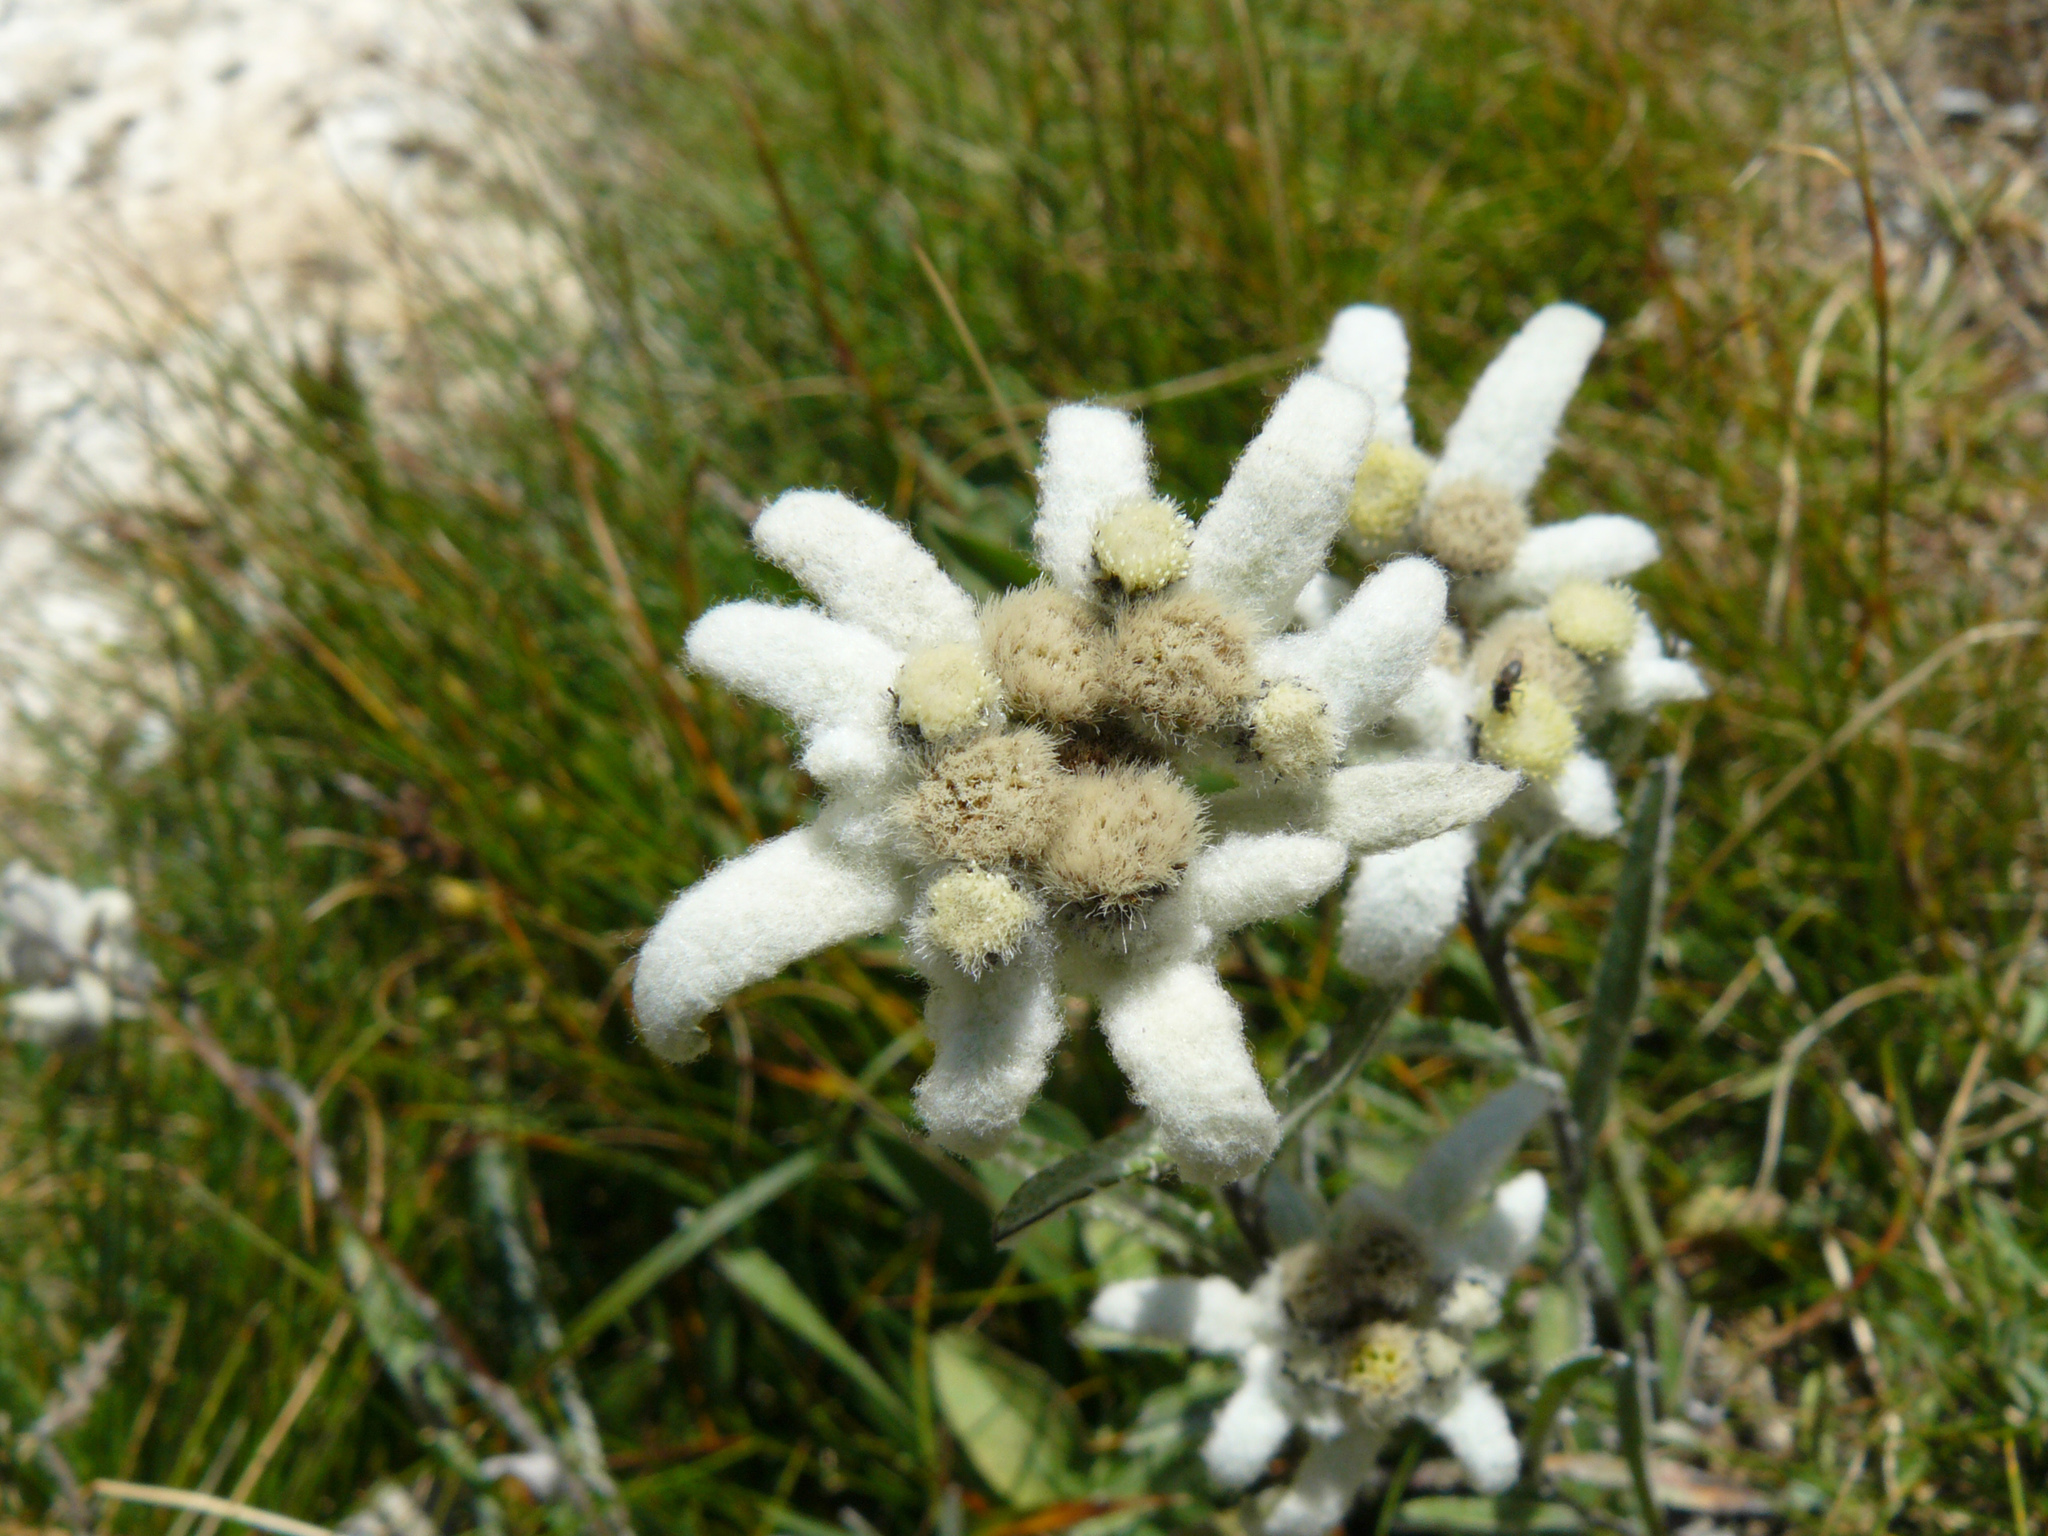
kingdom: Plantae
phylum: Tracheophyta
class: Magnoliopsida
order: Asterales
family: Asteraceae
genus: Leontopodium
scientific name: Leontopodium nivale
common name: Edelweiss
